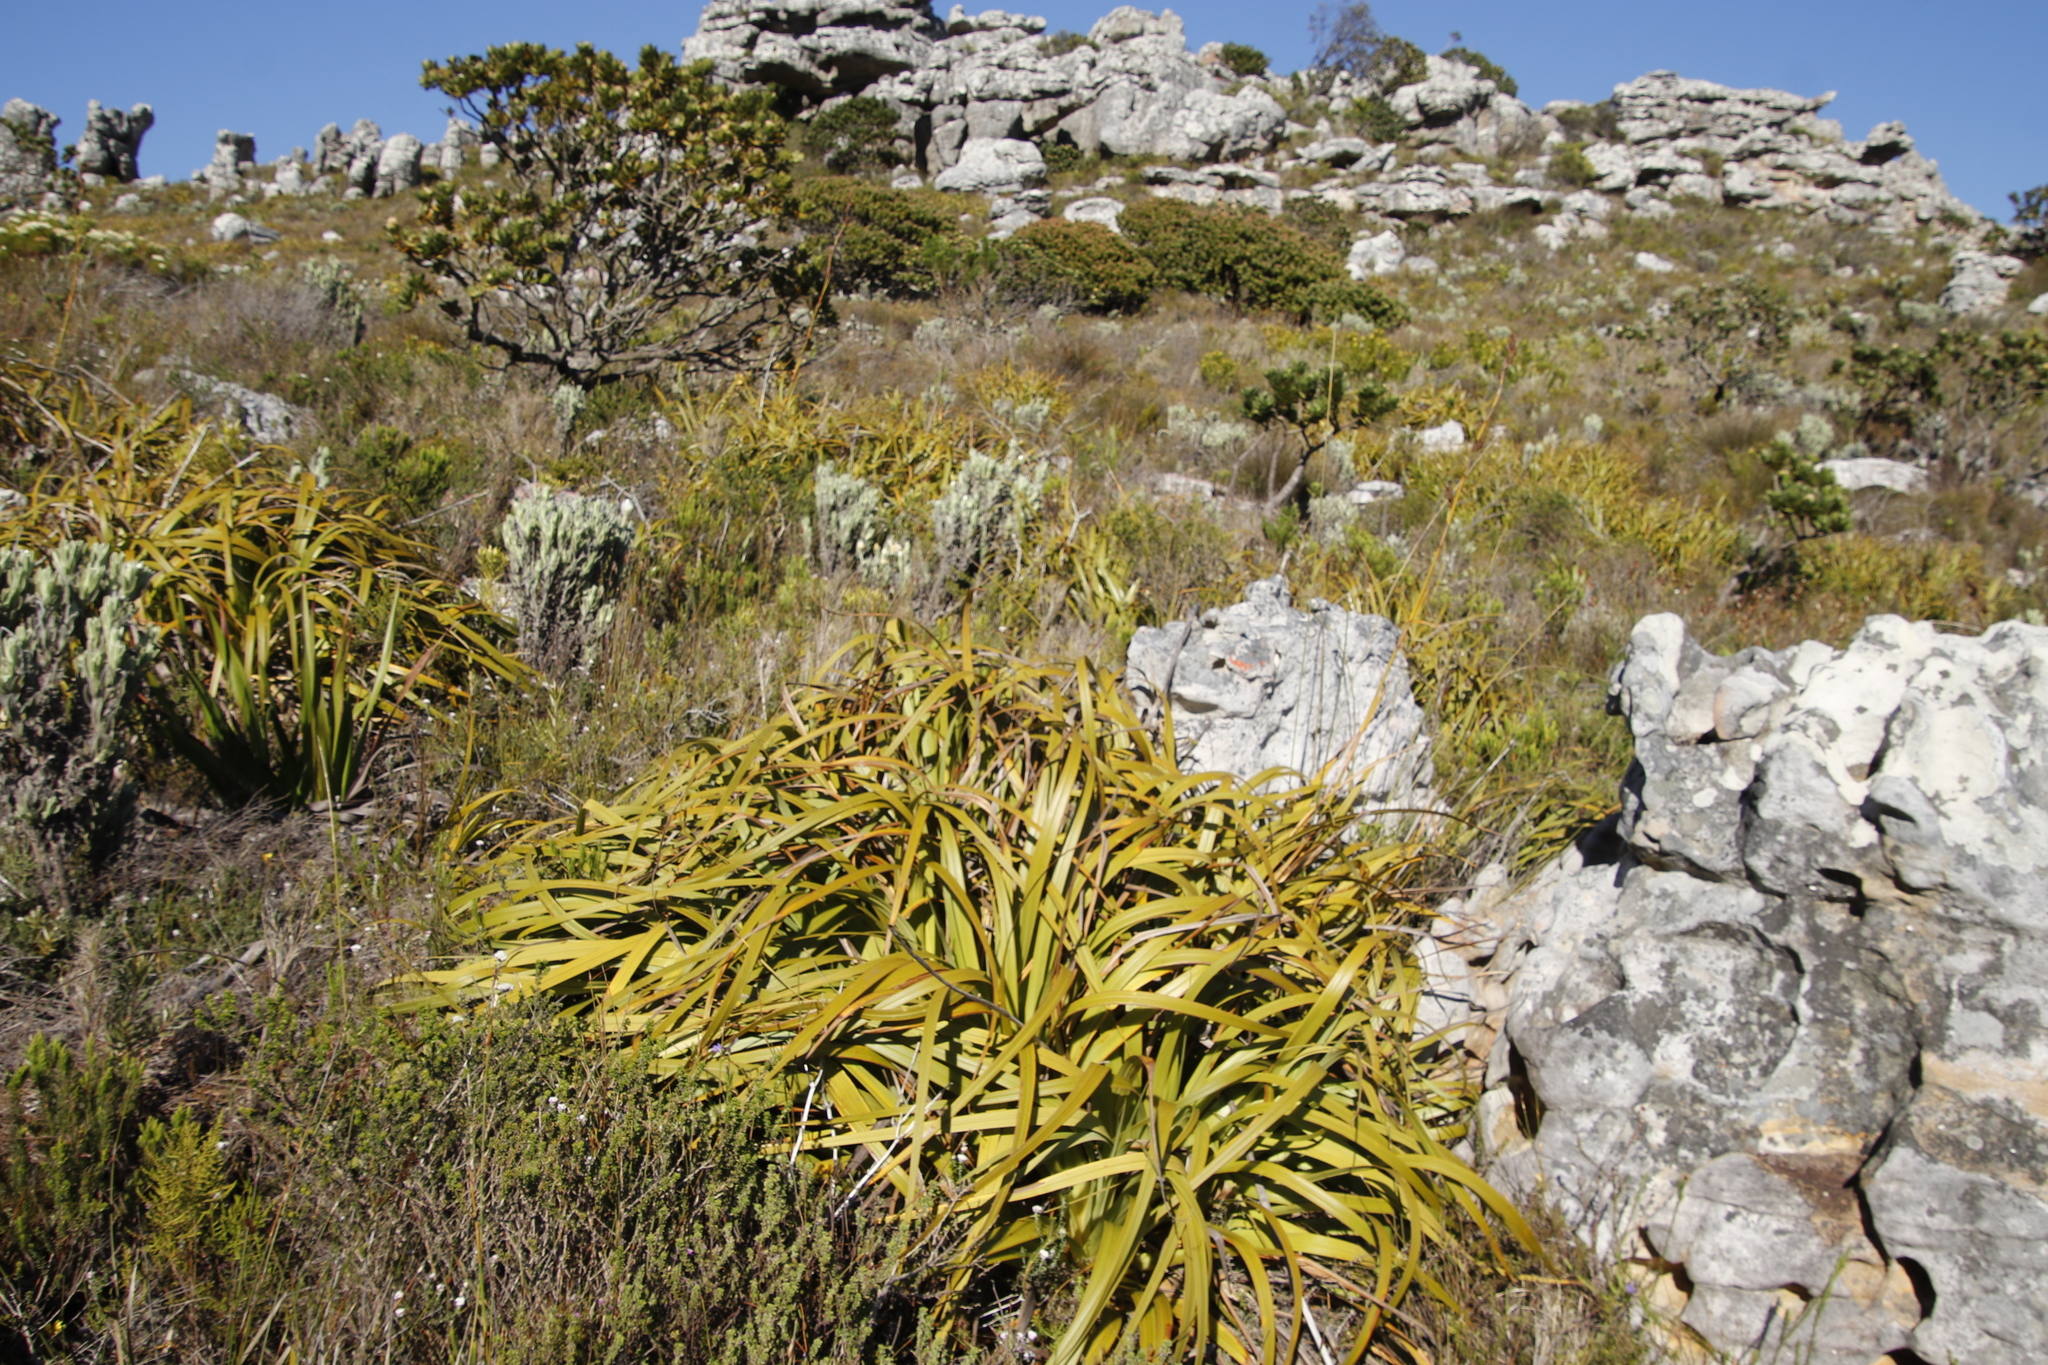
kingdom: Plantae
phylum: Tracheophyta
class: Liliopsida
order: Poales
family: Cyperaceae
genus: Tetraria
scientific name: Tetraria thermalis
